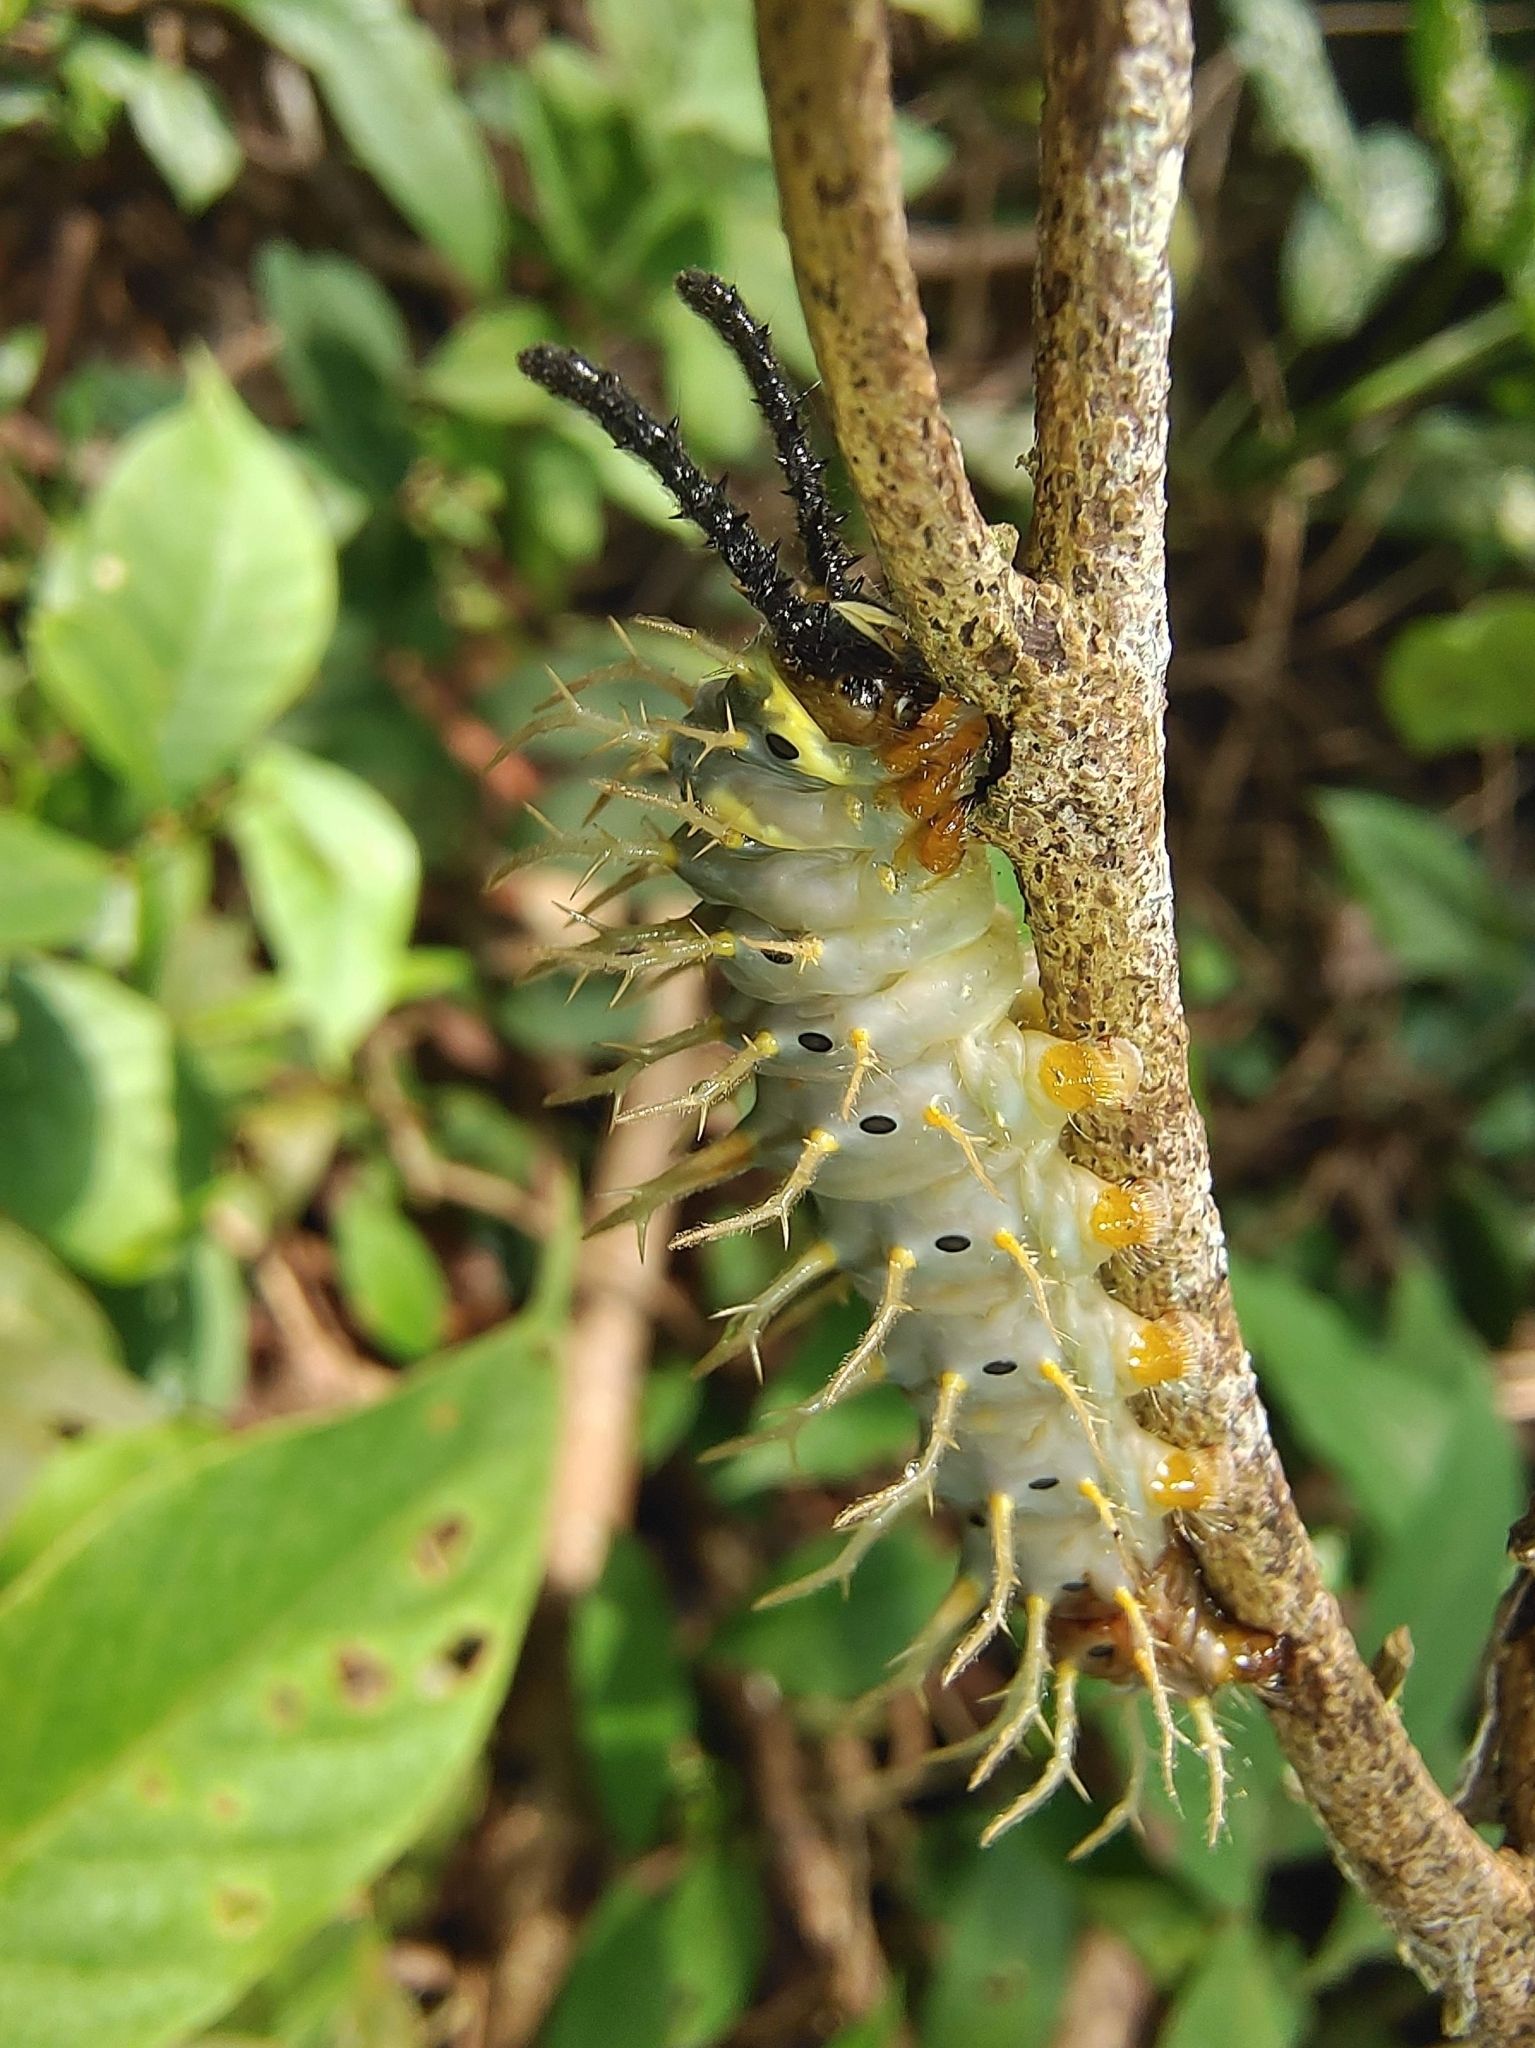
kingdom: Animalia
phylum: Arthropoda
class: Insecta
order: Lepidoptera
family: Nymphalidae
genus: Vindula
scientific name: Vindula deione
